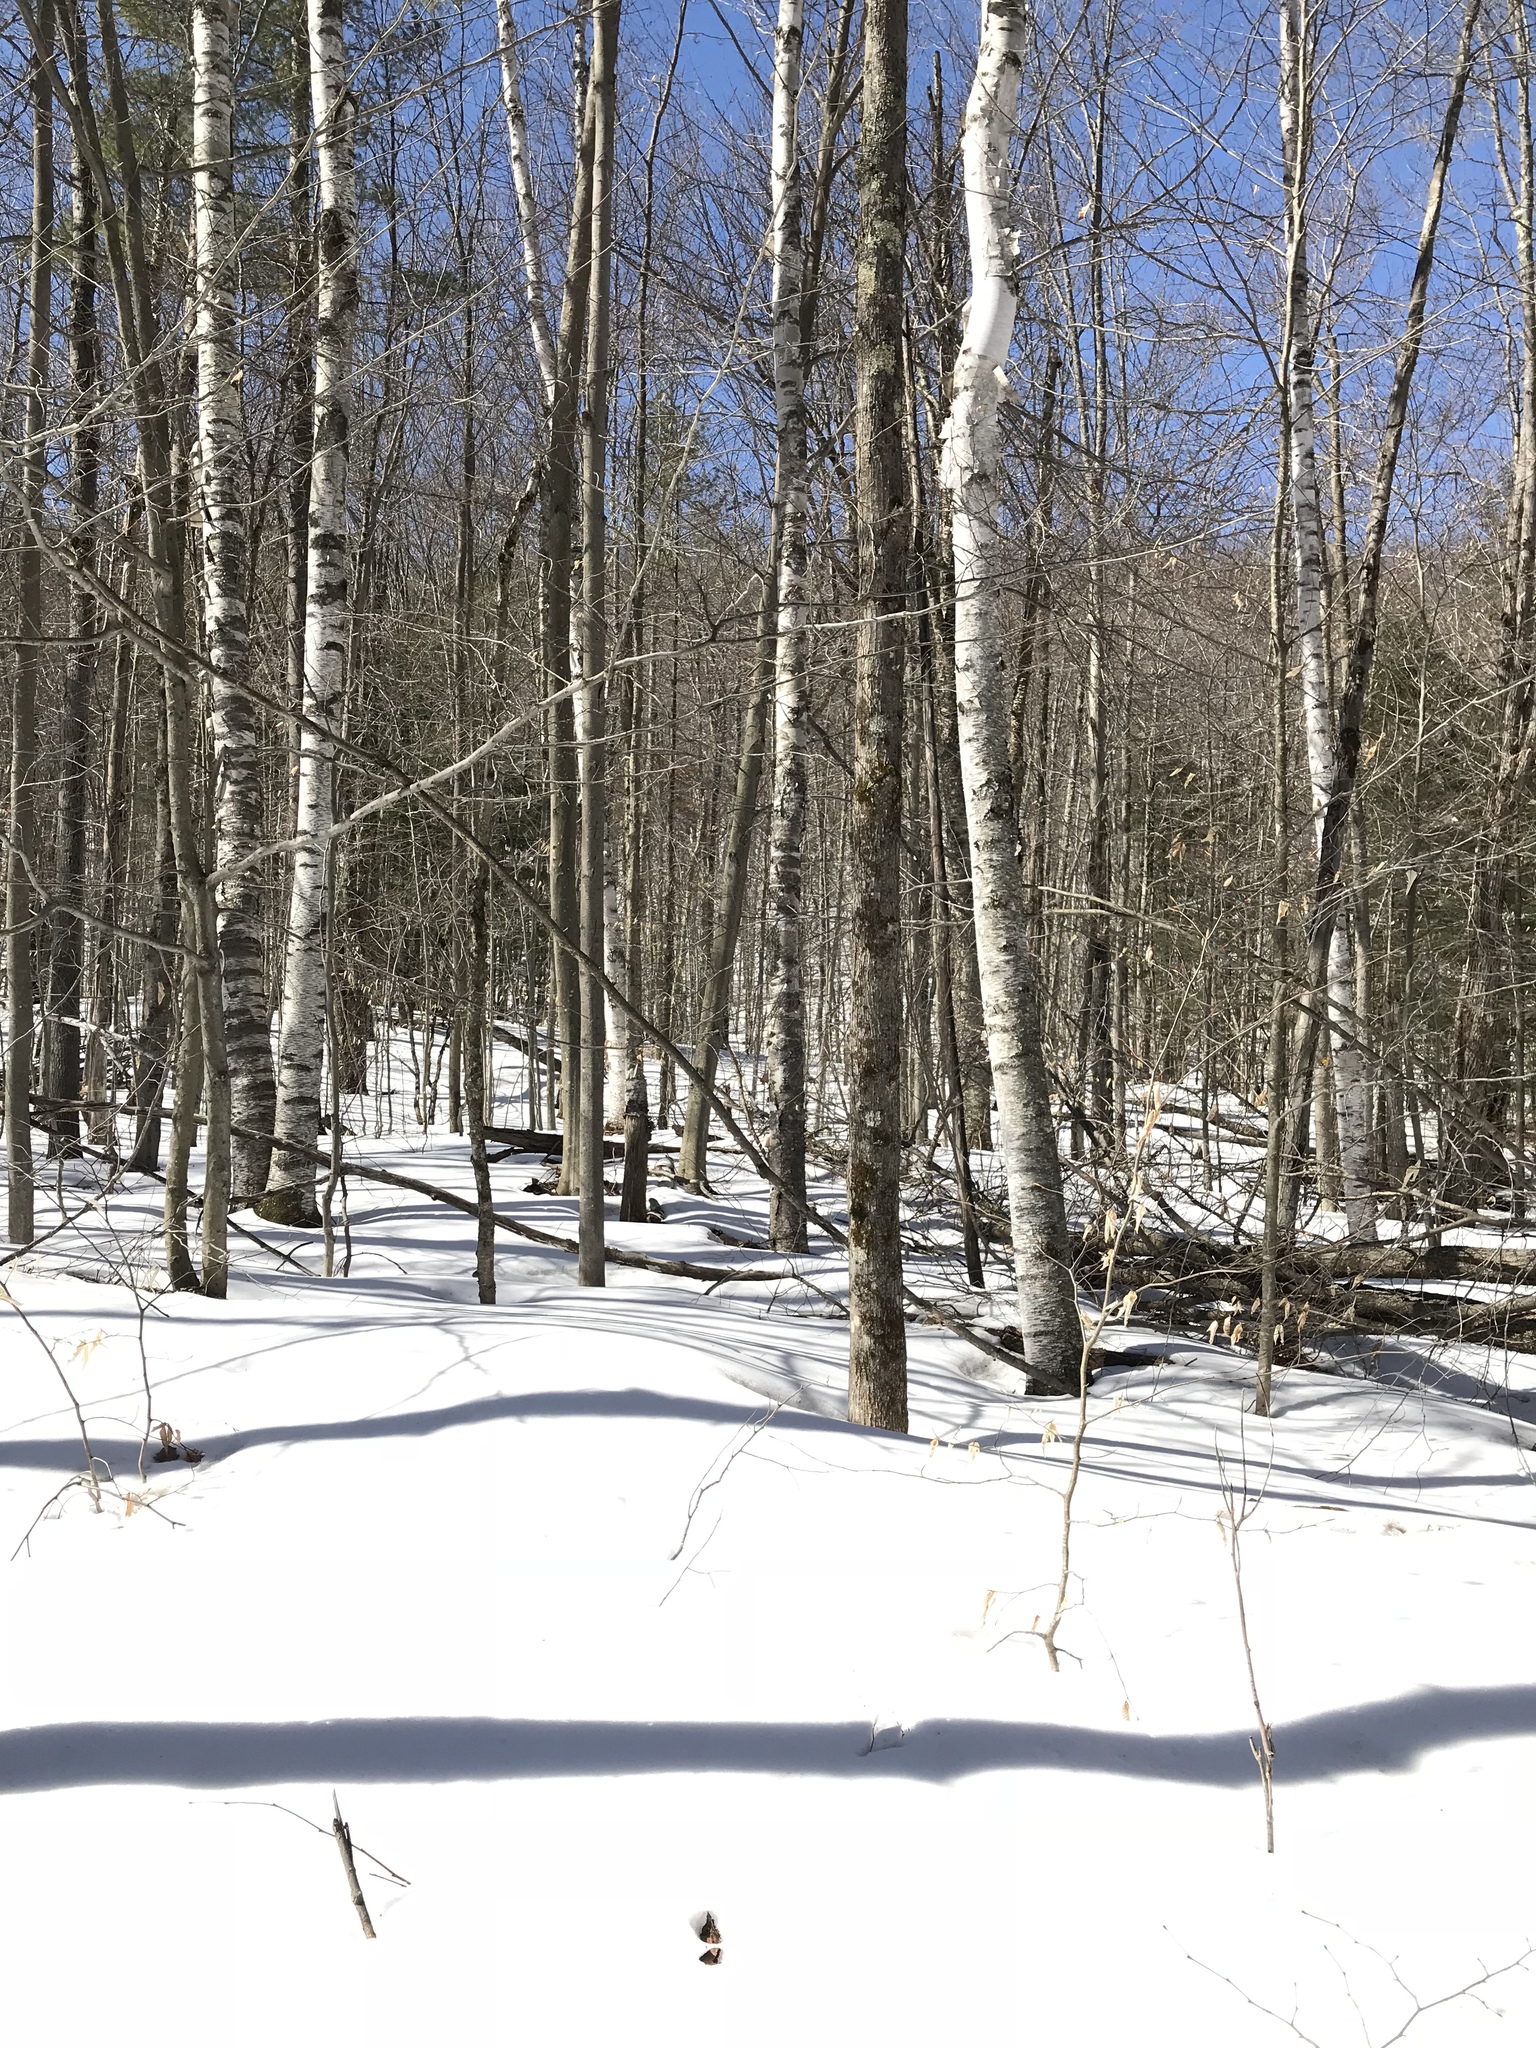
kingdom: Plantae
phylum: Tracheophyta
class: Magnoliopsida
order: Fagales
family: Betulaceae
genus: Betula
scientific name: Betula papyrifera
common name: Paper birch
